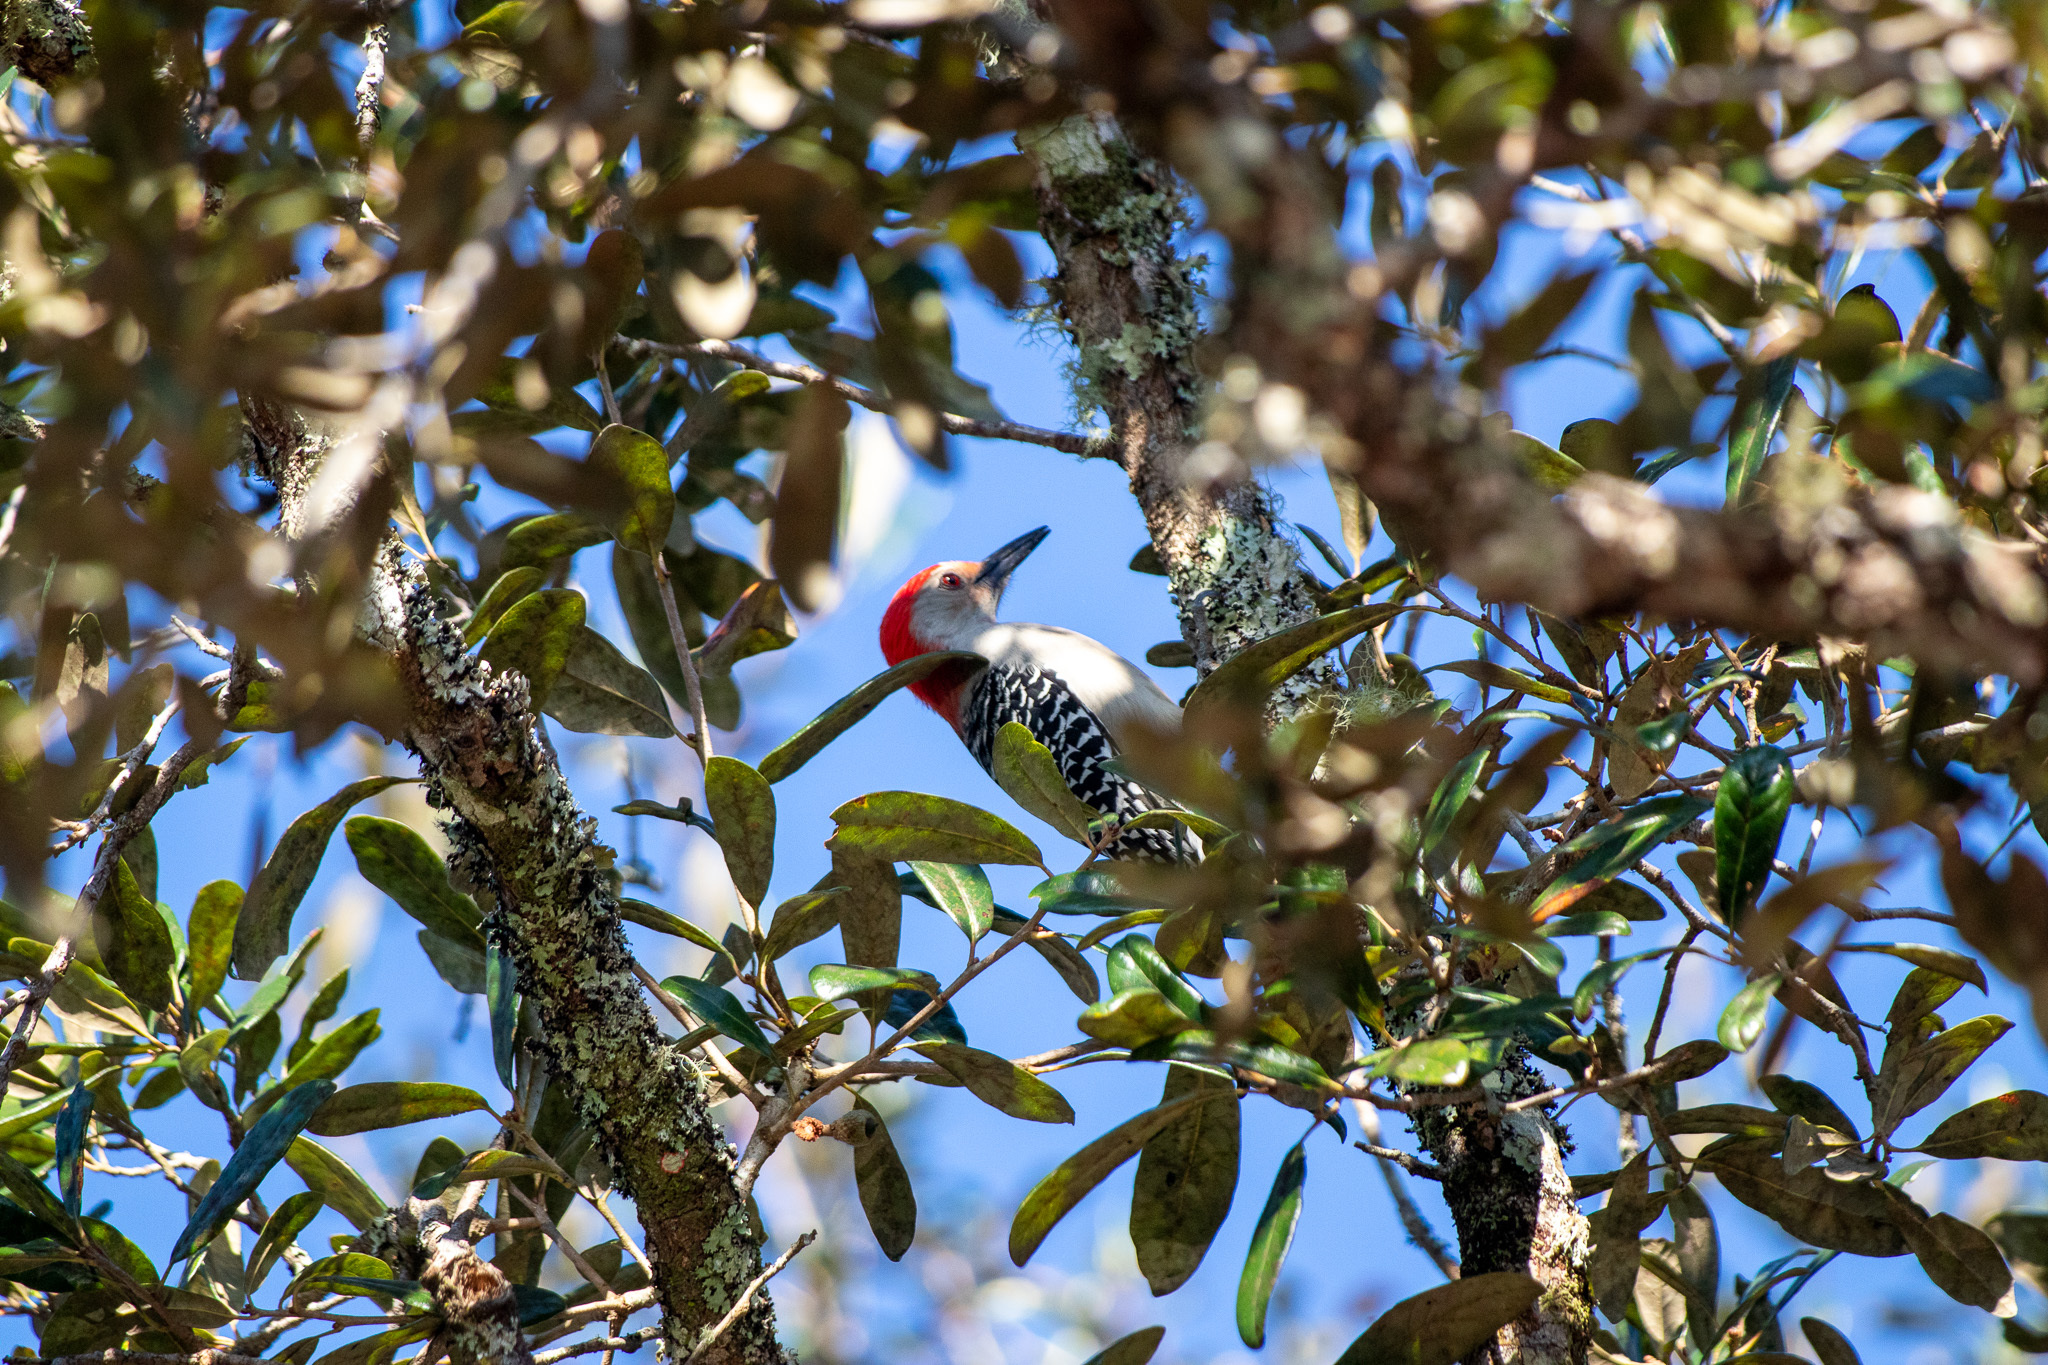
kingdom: Animalia
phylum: Chordata
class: Aves
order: Piciformes
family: Picidae
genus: Melanerpes
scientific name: Melanerpes carolinus
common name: Red-bellied woodpecker
